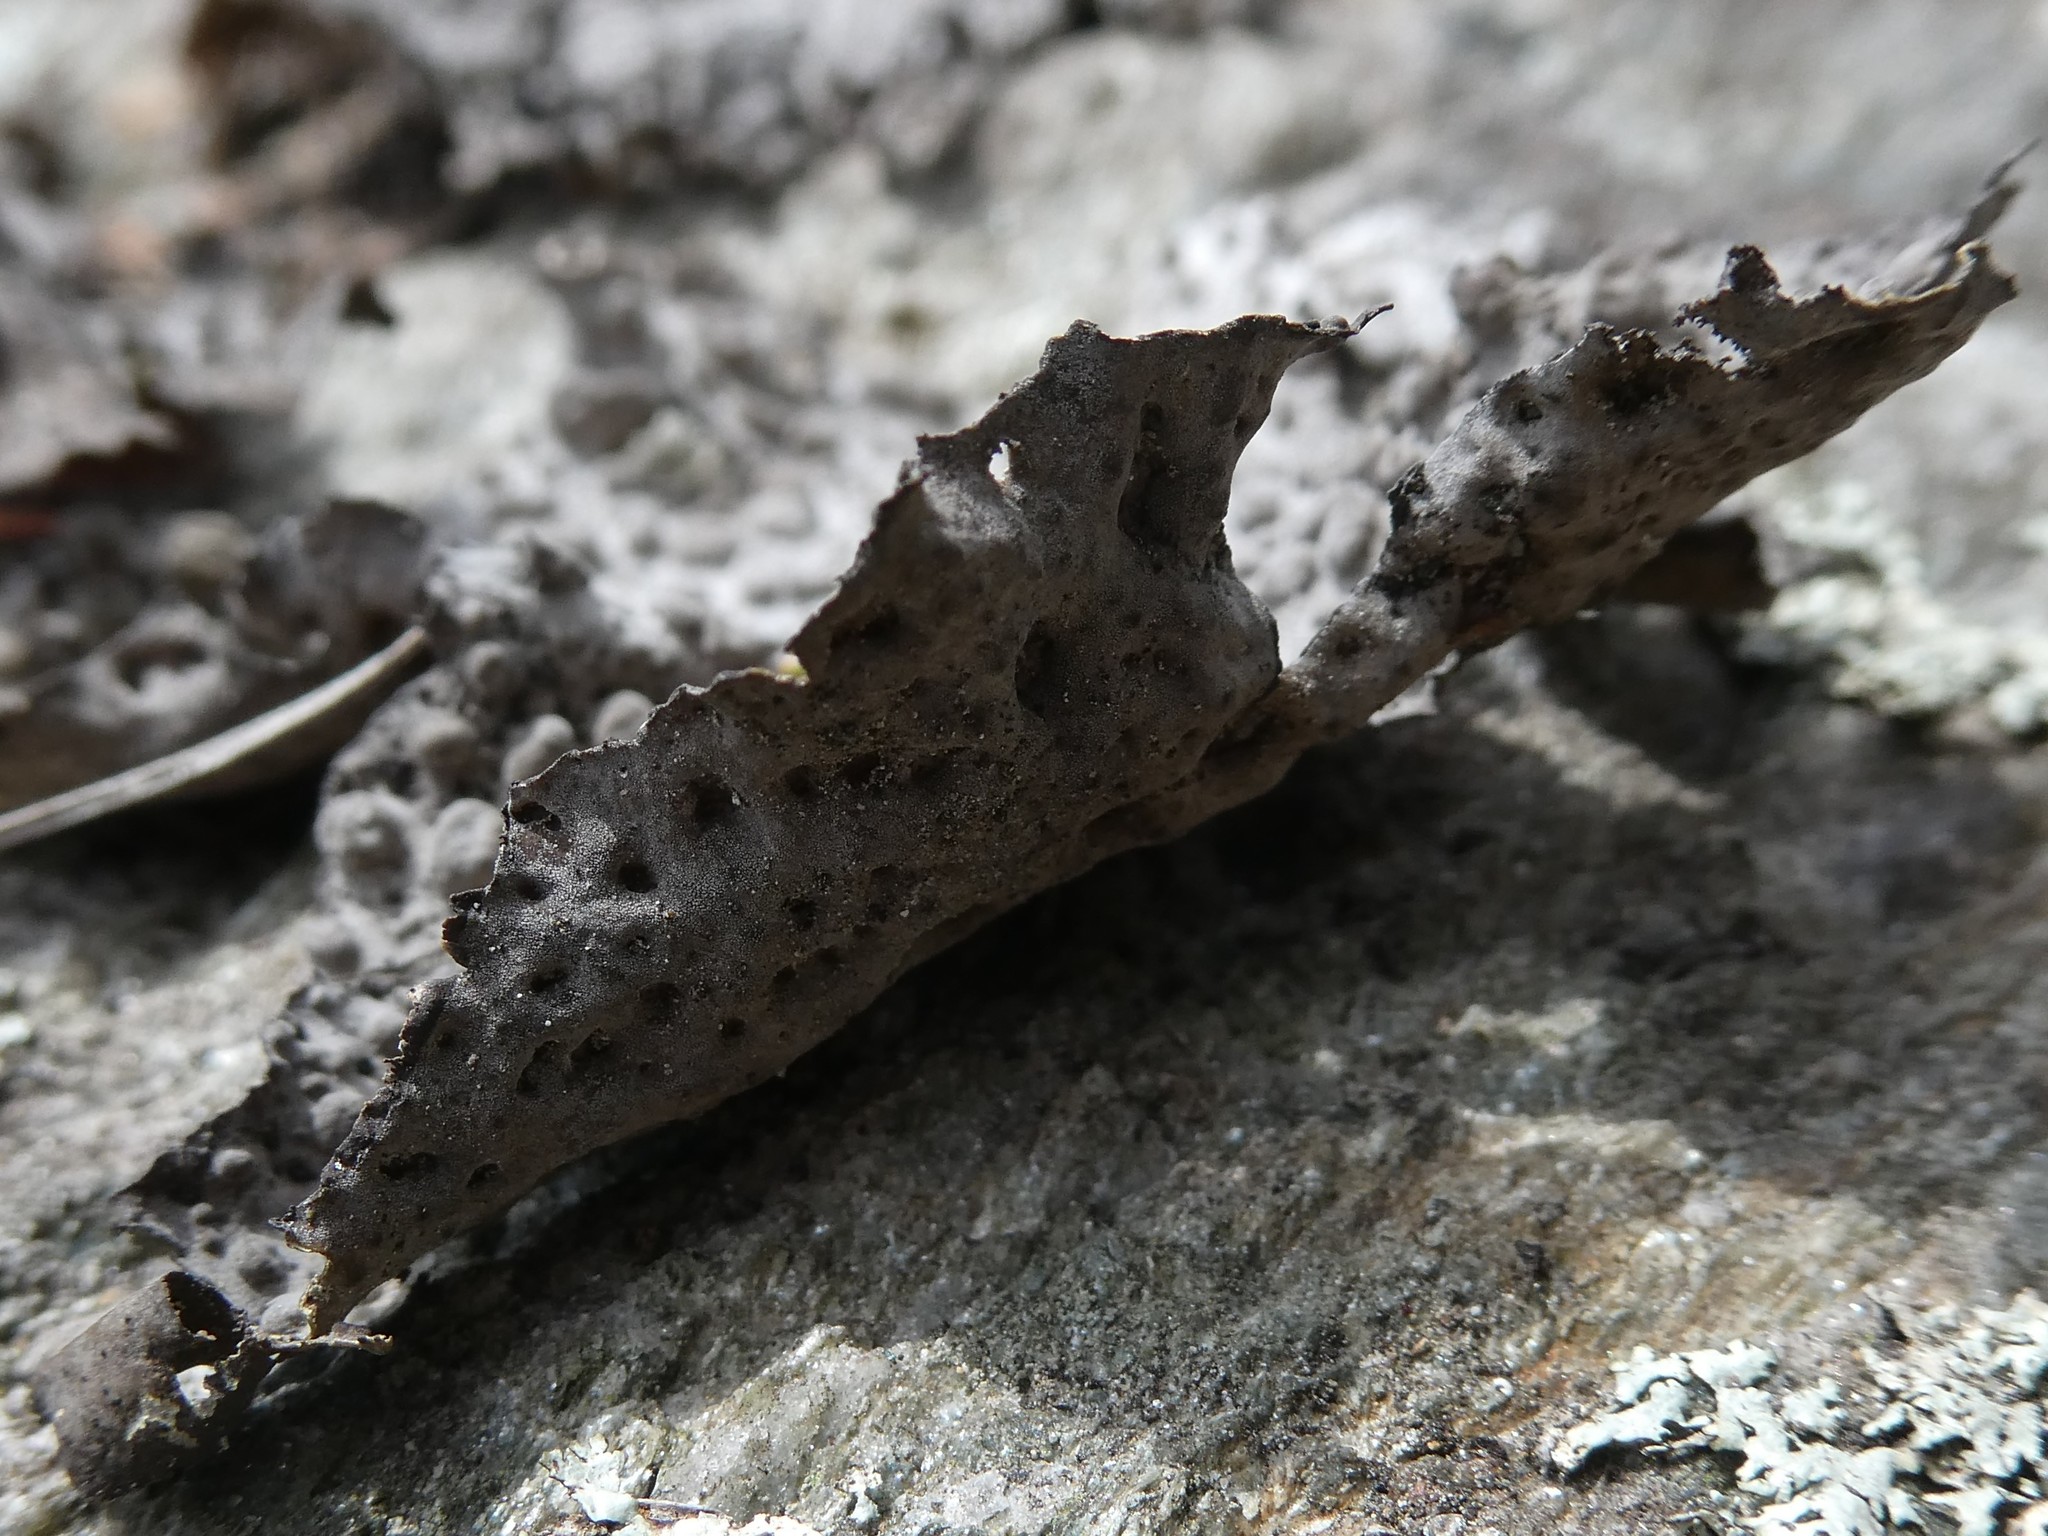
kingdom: Fungi
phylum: Ascomycota
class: Lecanoromycetes
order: Umbilicariales
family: Umbilicariaceae
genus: Lasallia
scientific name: Lasallia papulosa
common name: Common toadskin lichen
